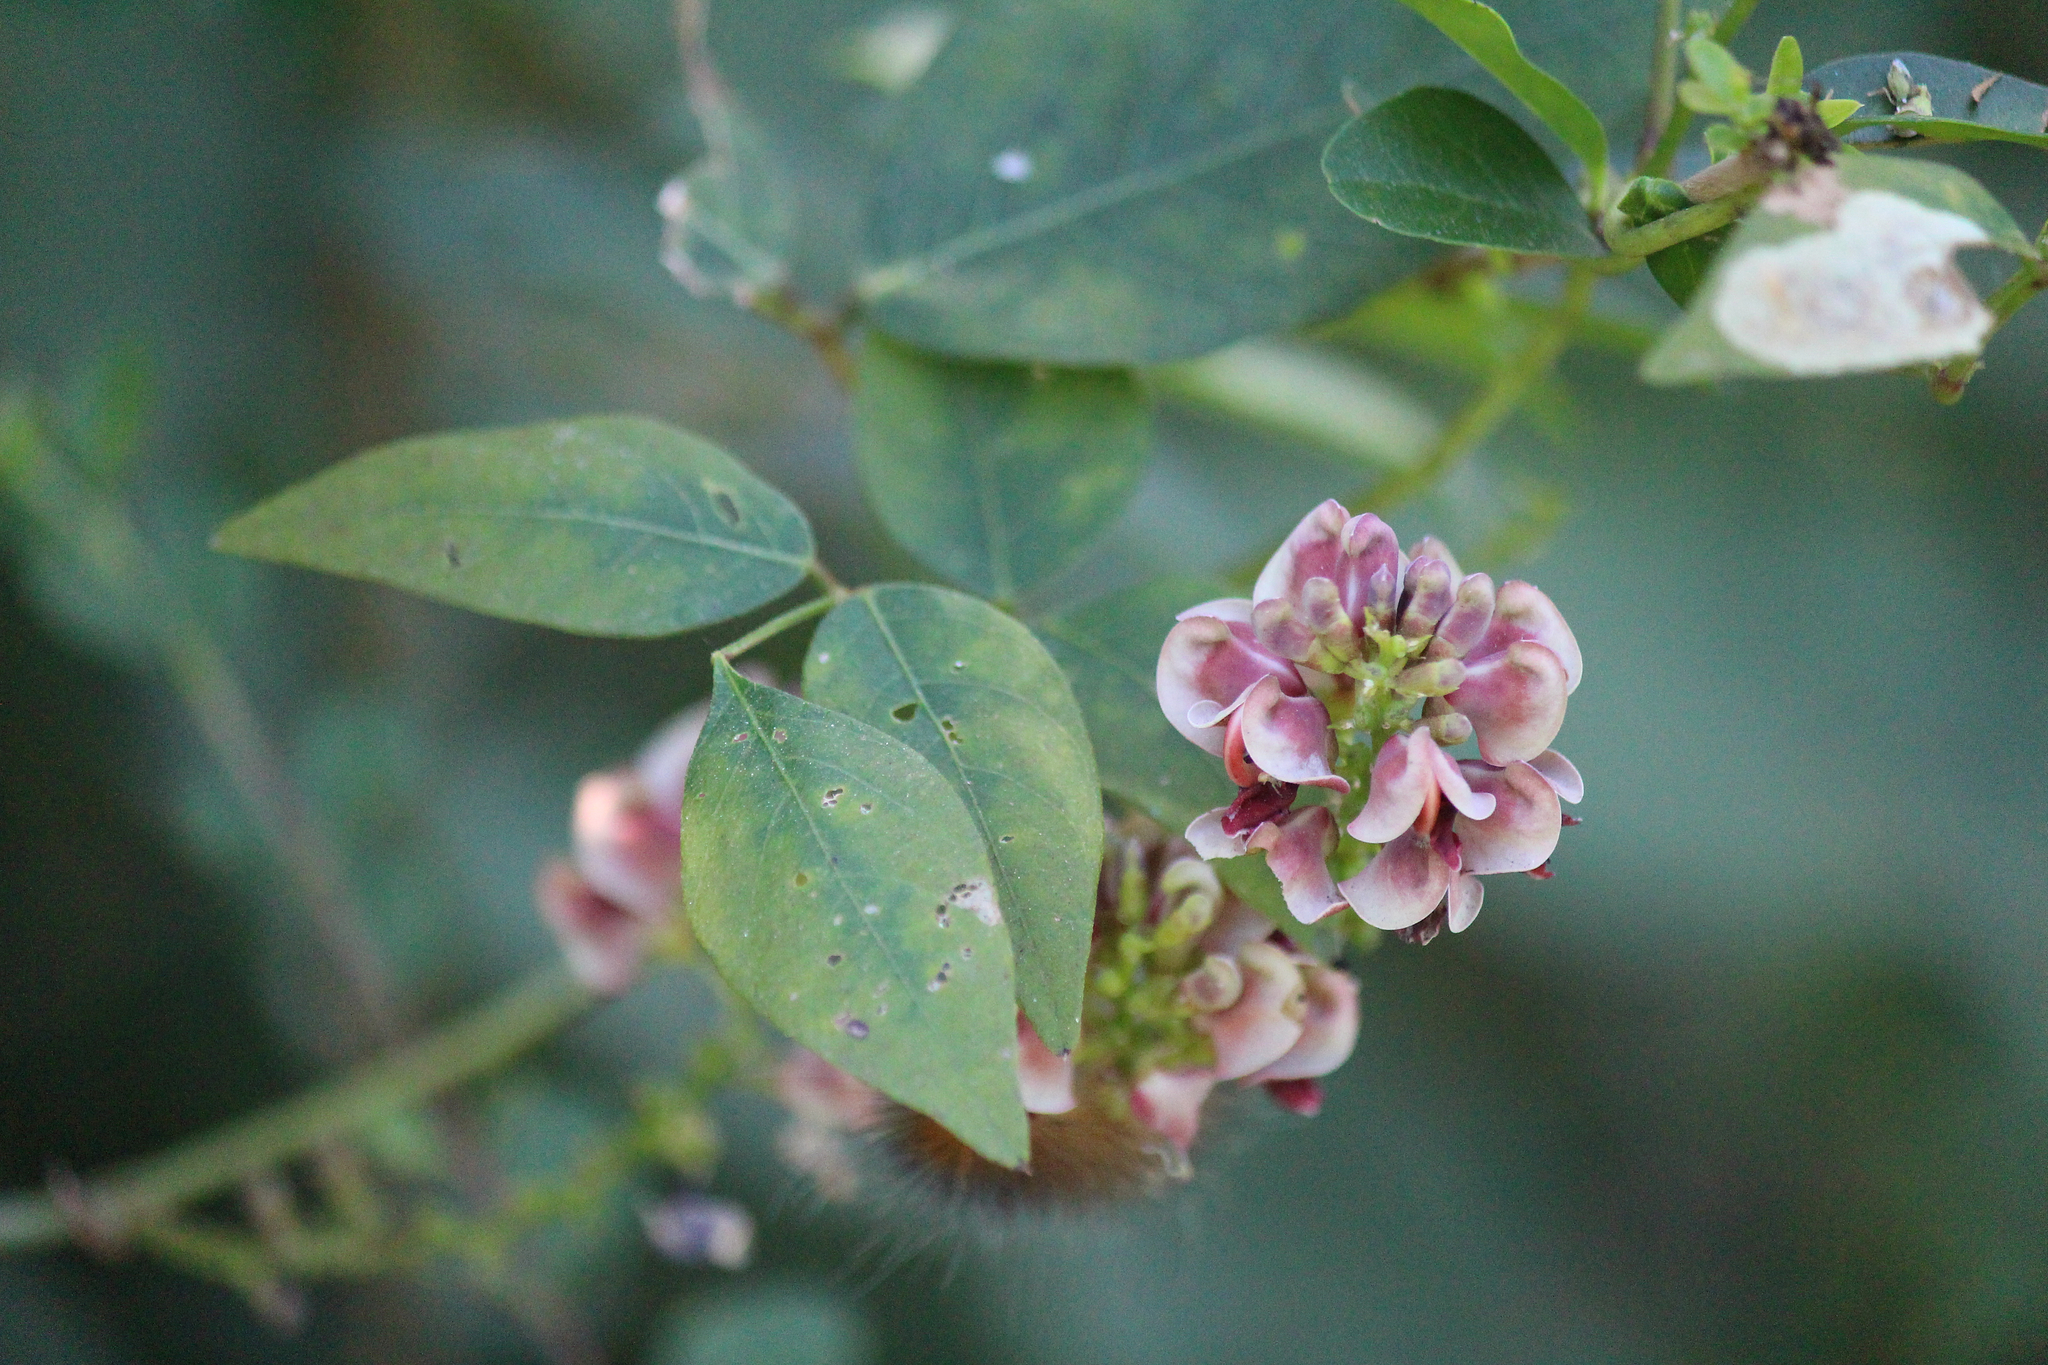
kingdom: Plantae
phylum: Tracheophyta
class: Magnoliopsida
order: Fabales
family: Fabaceae
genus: Apios
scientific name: Apios americana
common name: American potato-bean
